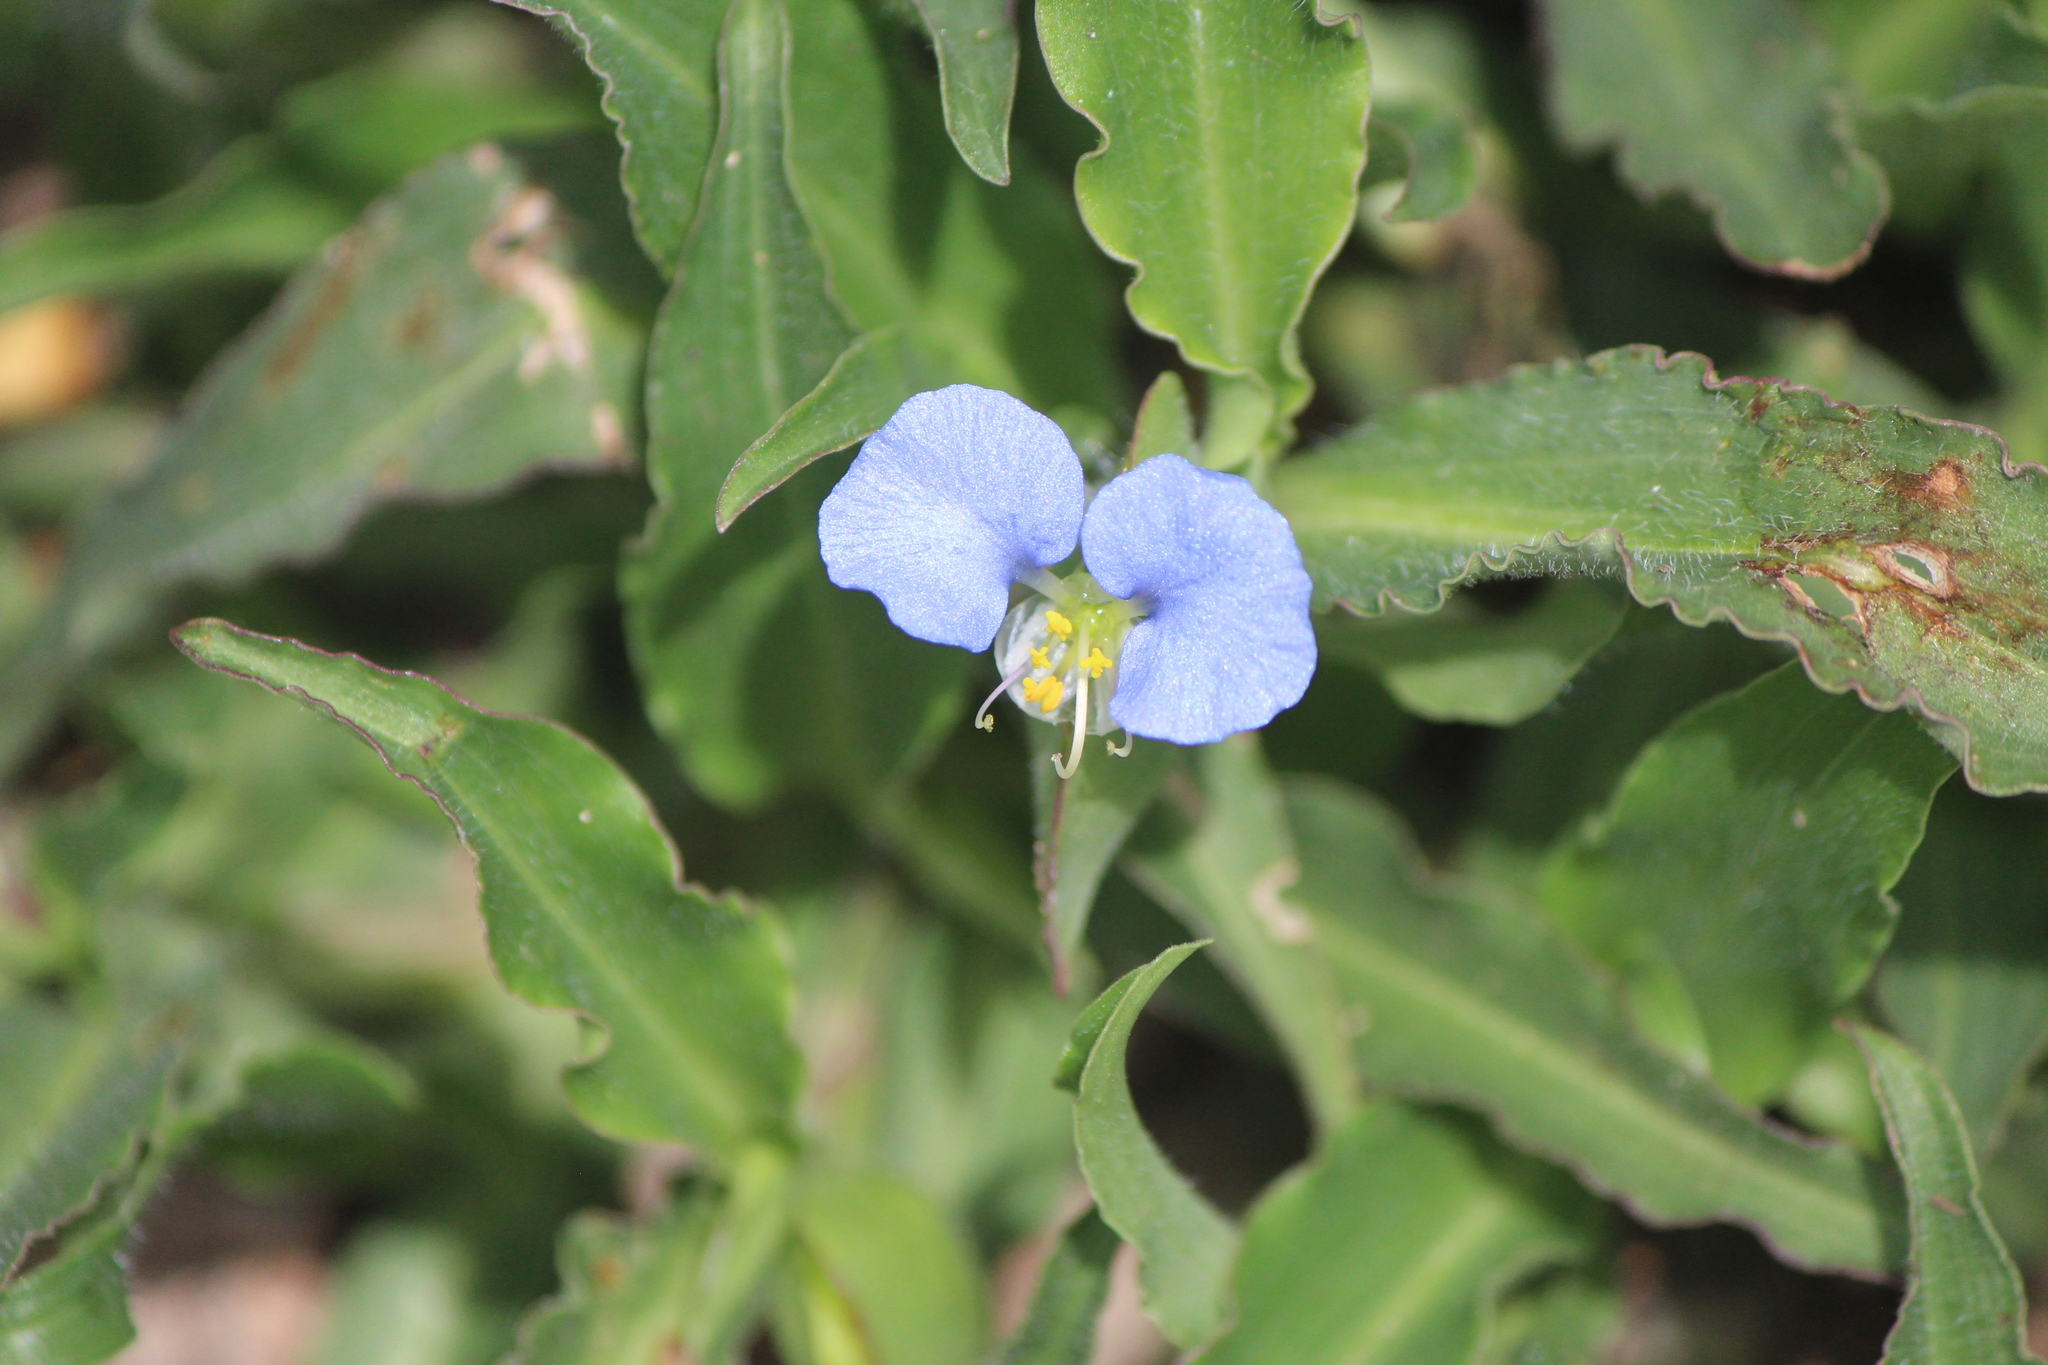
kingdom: Plantae
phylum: Tracheophyta
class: Liliopsida
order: Commelinales
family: Commelinaceae
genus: Commelina
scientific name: Commelina erecta
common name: Blousel blommetjie
